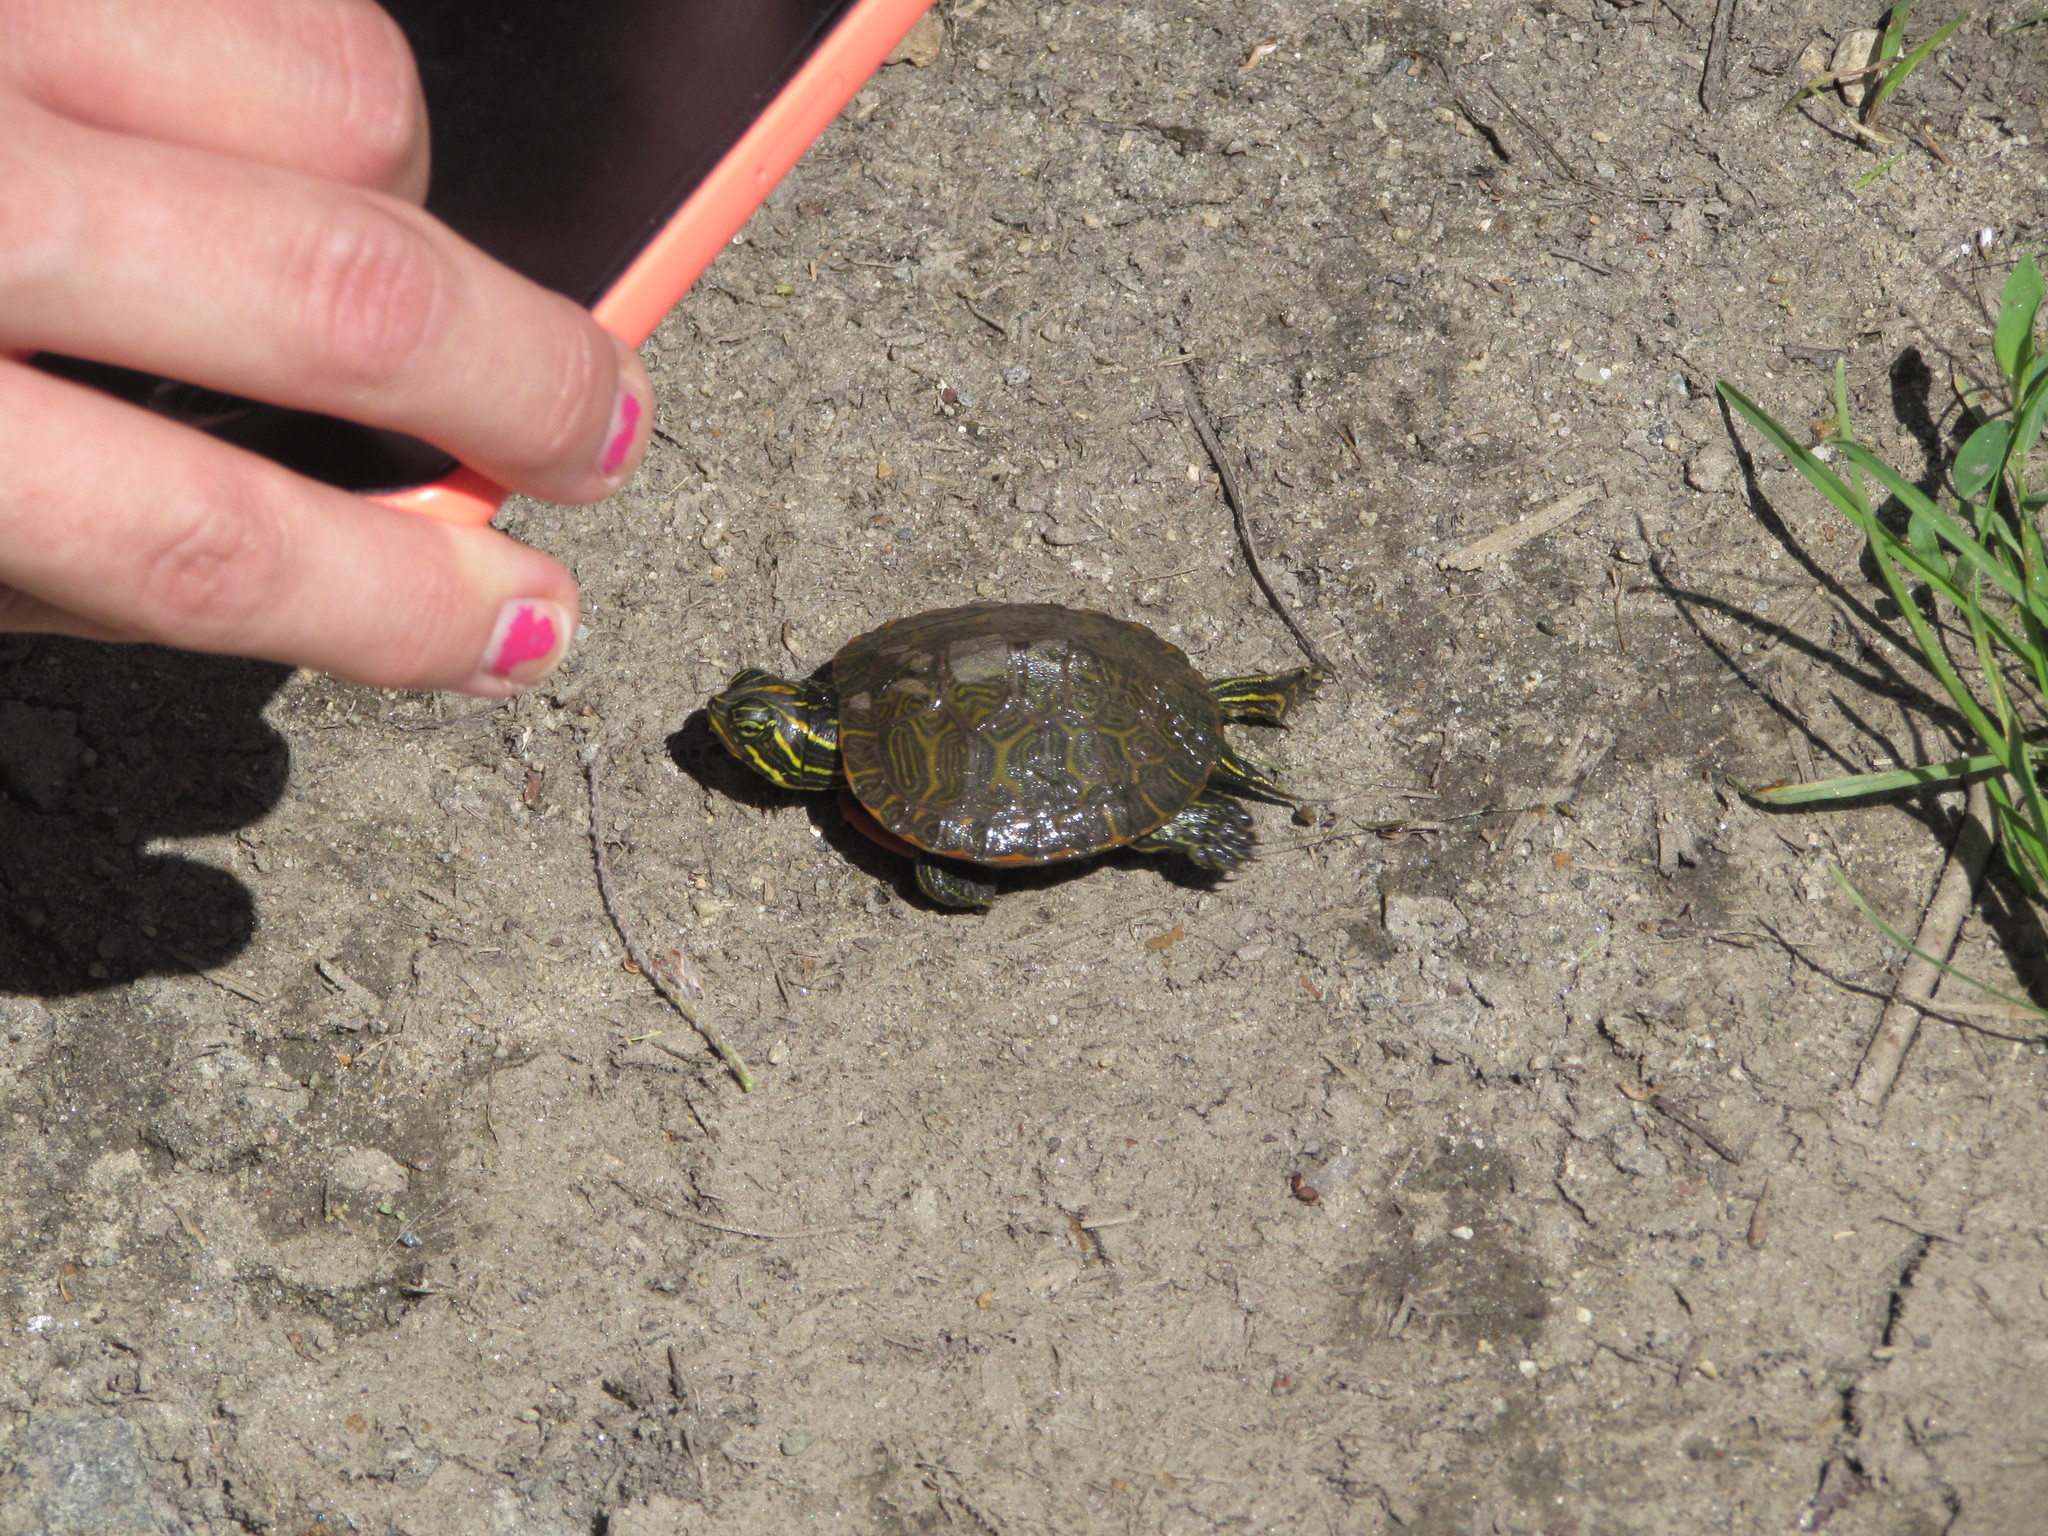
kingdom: Animalia
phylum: Chordata
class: Testudines
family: Emydidae
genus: Pseudemys
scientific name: Pseudemys rubriventris
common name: American red-bellied turtle
